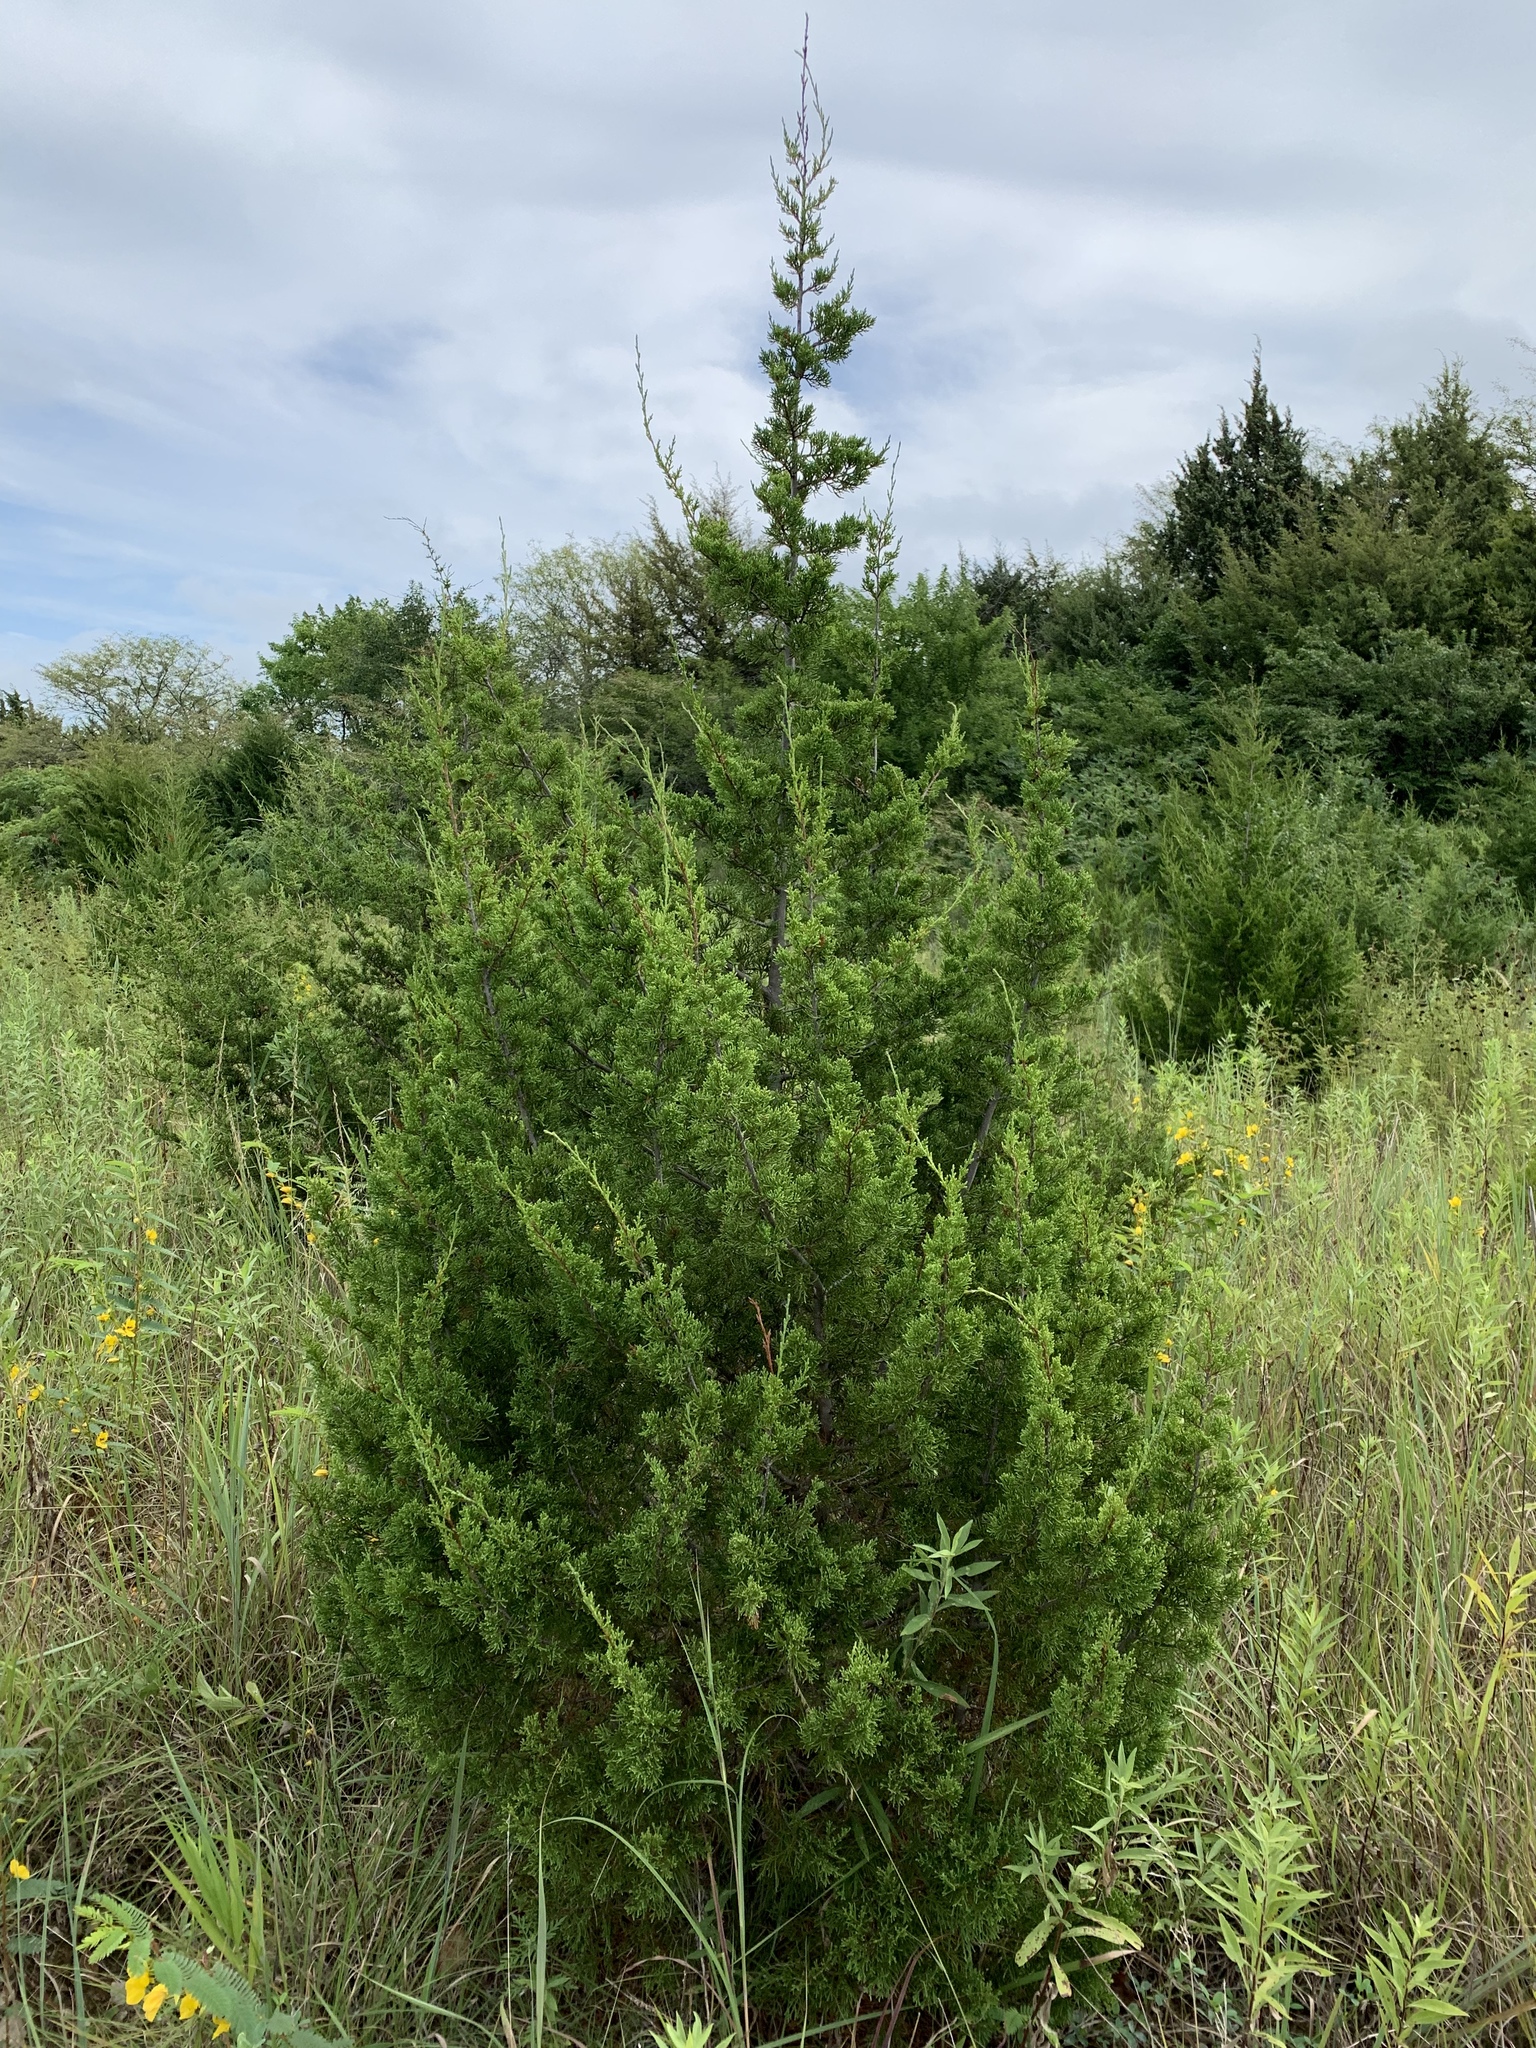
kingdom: Plantae
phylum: Tracheophyta
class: Pinopsida
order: Pinales
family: Cupressaceae
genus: Juniperus
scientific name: Juniperus virginiana
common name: Red juniper
